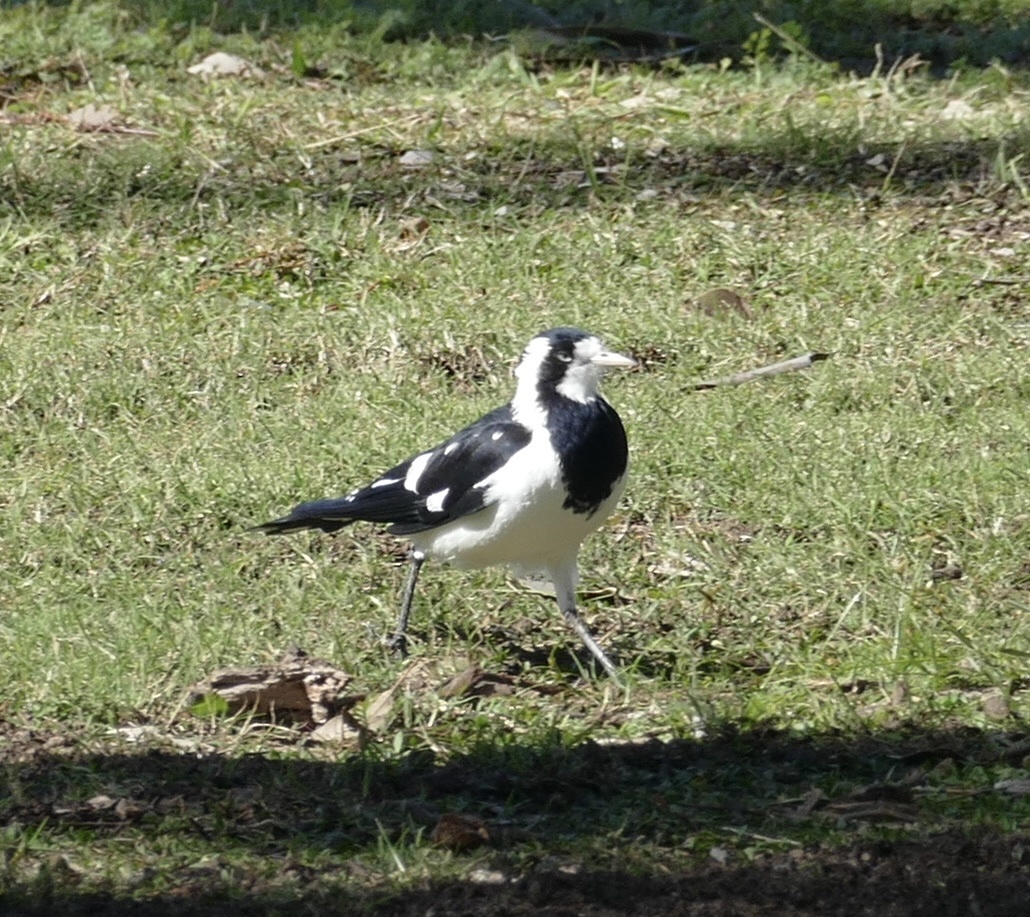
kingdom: Animalia
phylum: Chordata
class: Aves
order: Passeriformes
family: Monarchidae
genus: Grallina
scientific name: Grallina cyanoleuca
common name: Magpie-lark
